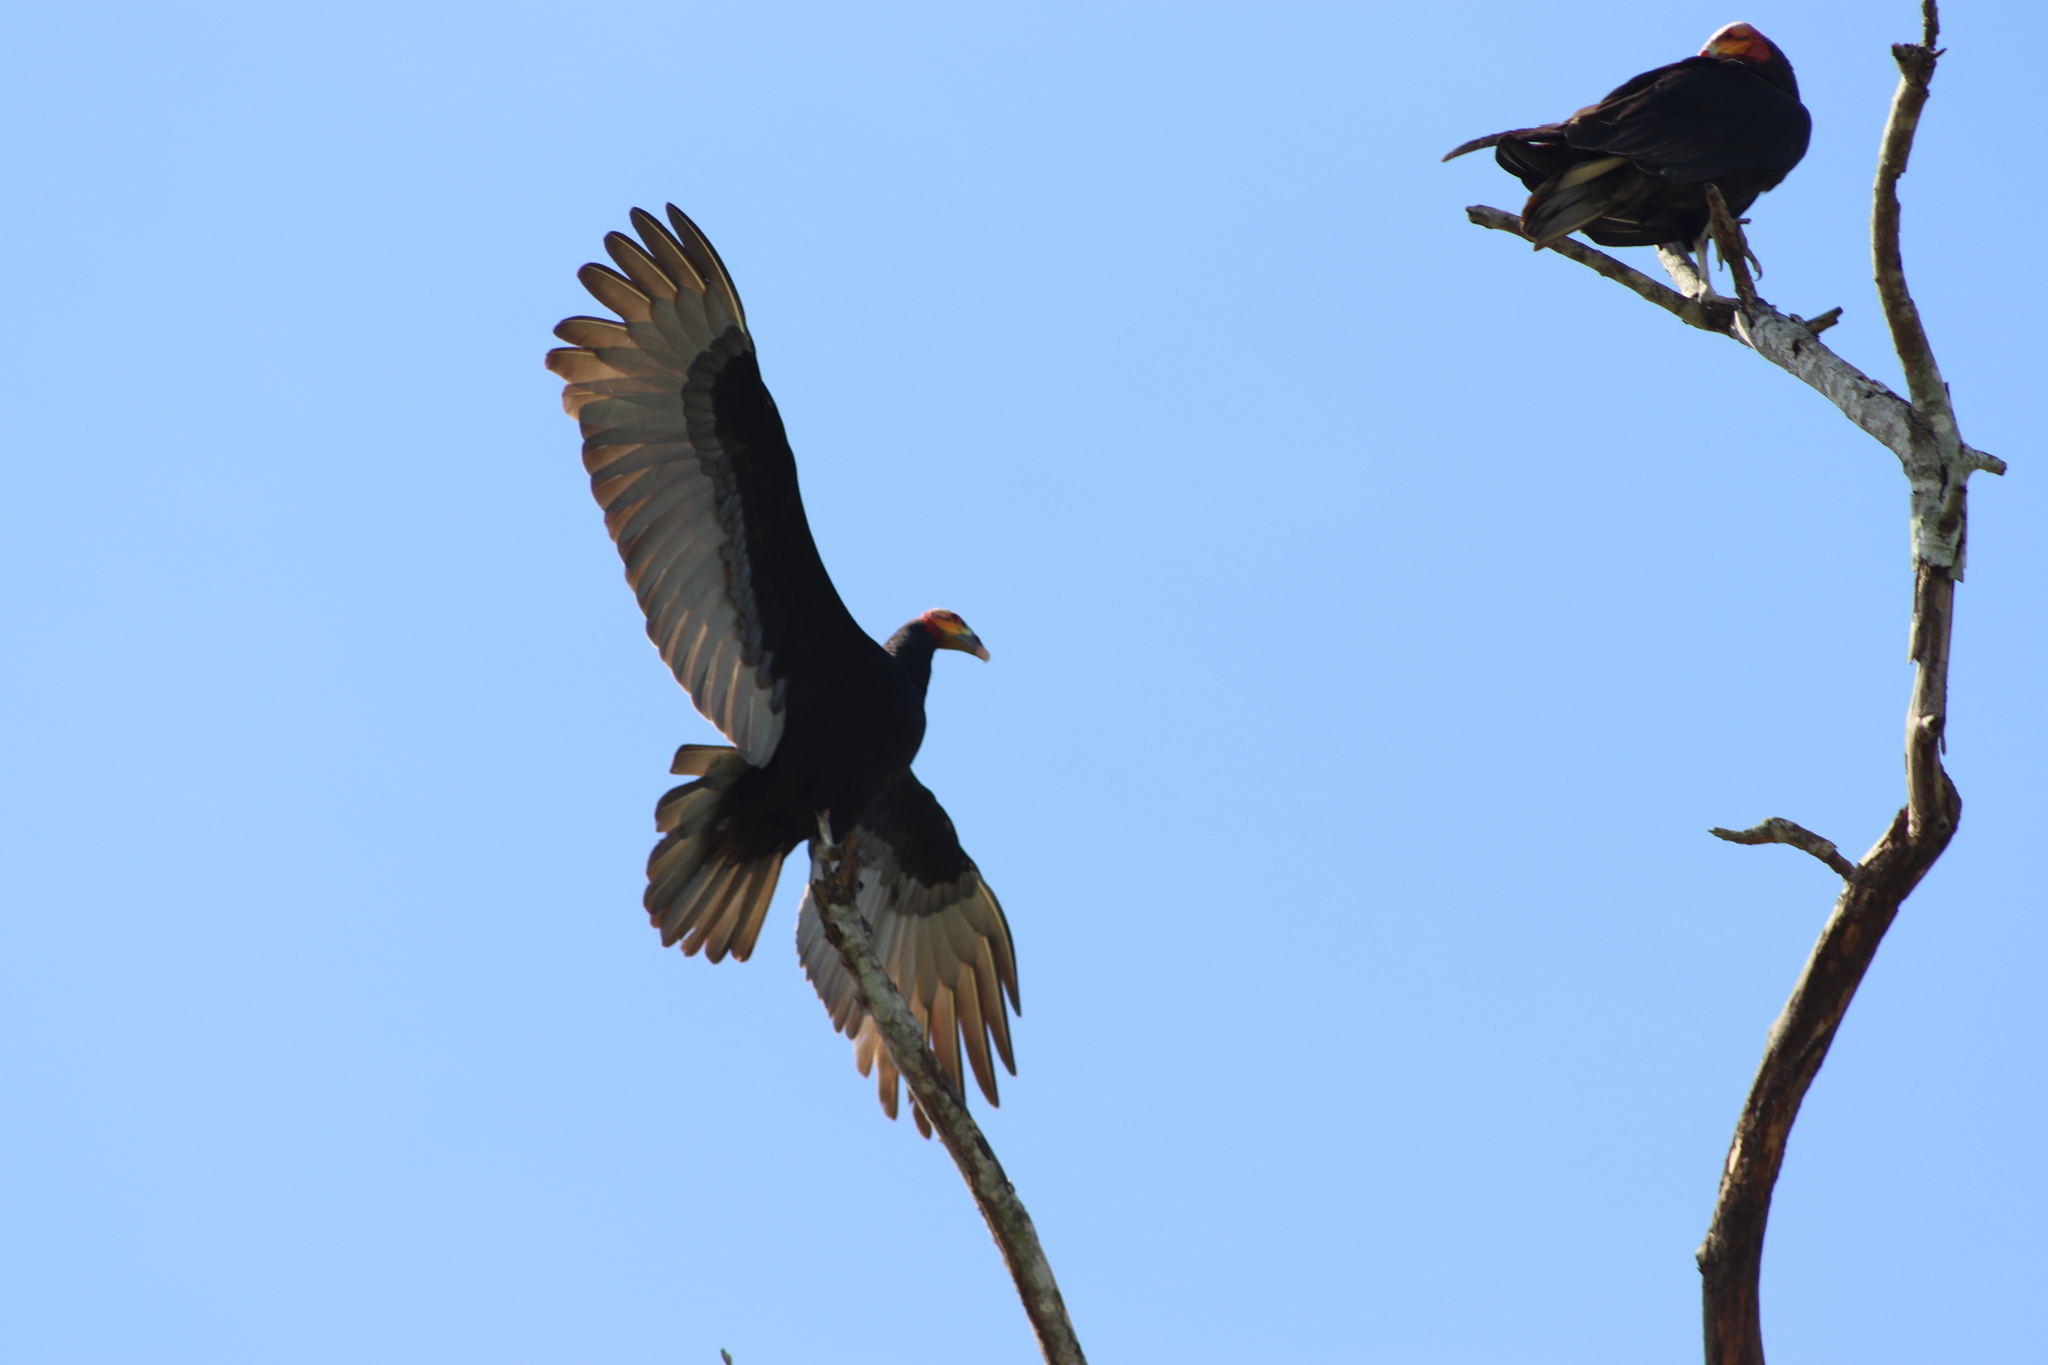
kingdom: Animalia
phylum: Chordata
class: Aves
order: Accipitriformes
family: Cathartidae
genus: Cathartes
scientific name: Cathartes burrovianus
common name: Lesser yellow-headed vulture
